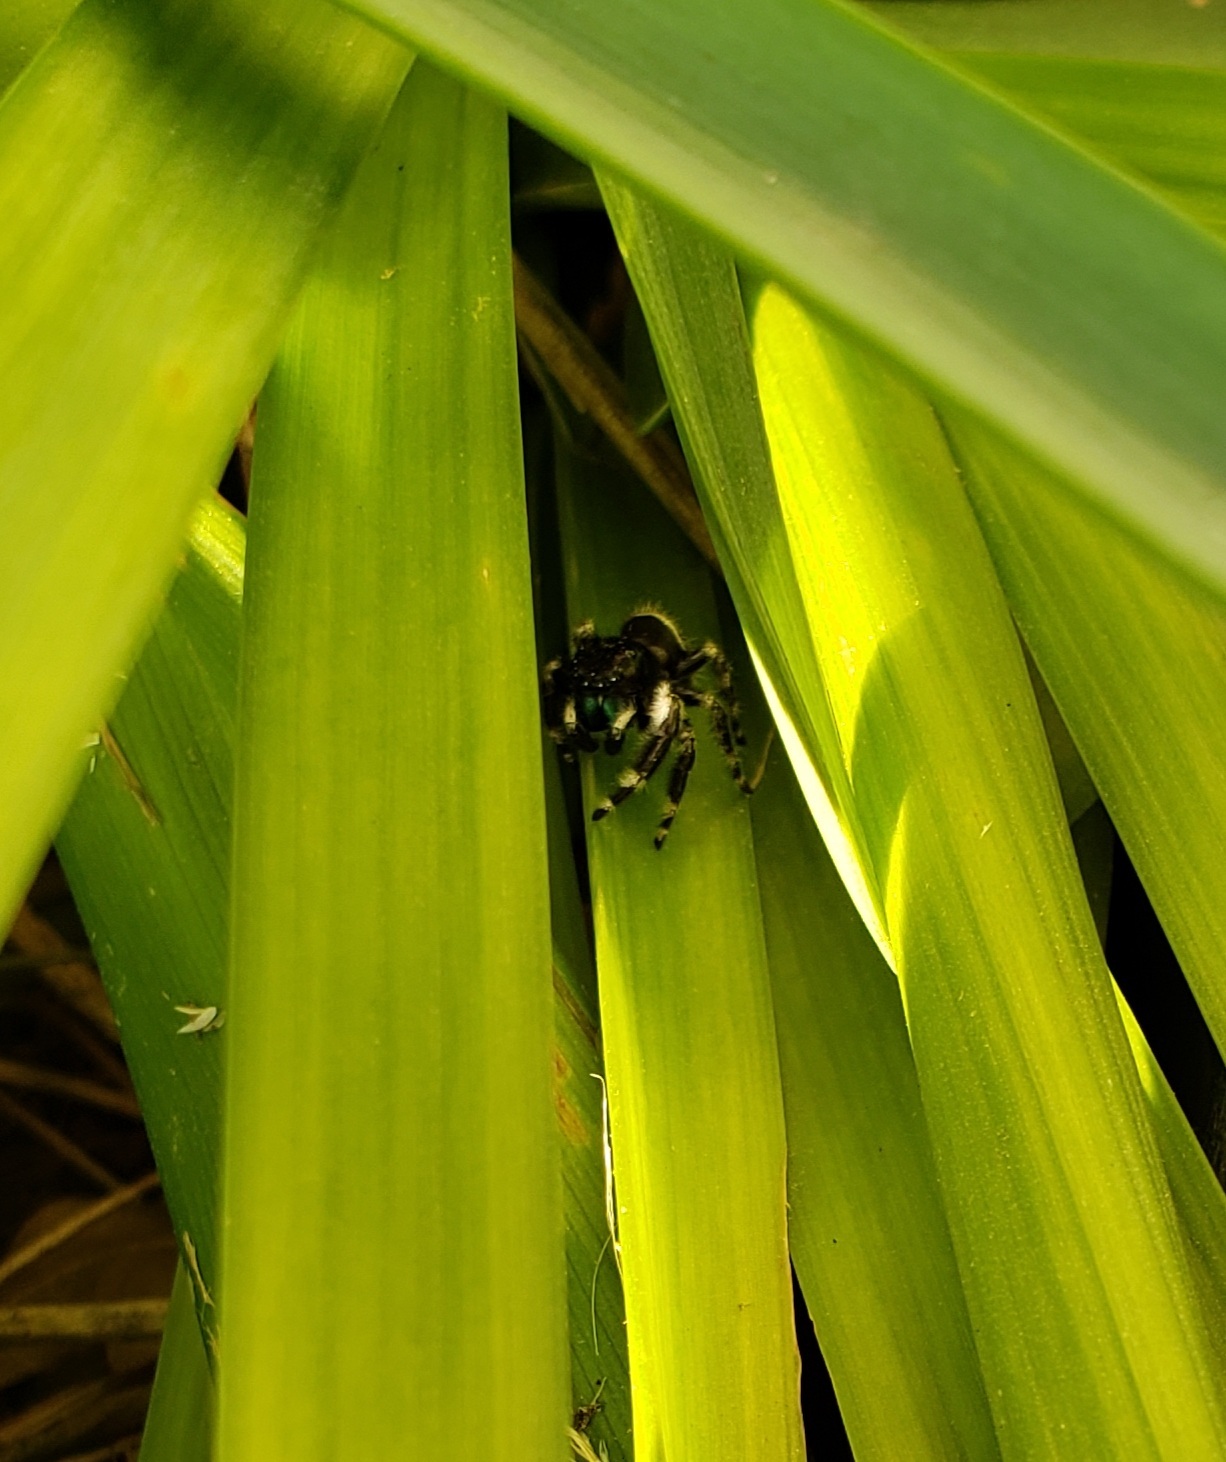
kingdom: Animalia
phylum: Arthropoda
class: Arachnida
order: Araneae
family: Salticidae
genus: Phidippus
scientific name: Phidippus audax
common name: Bold jumper
